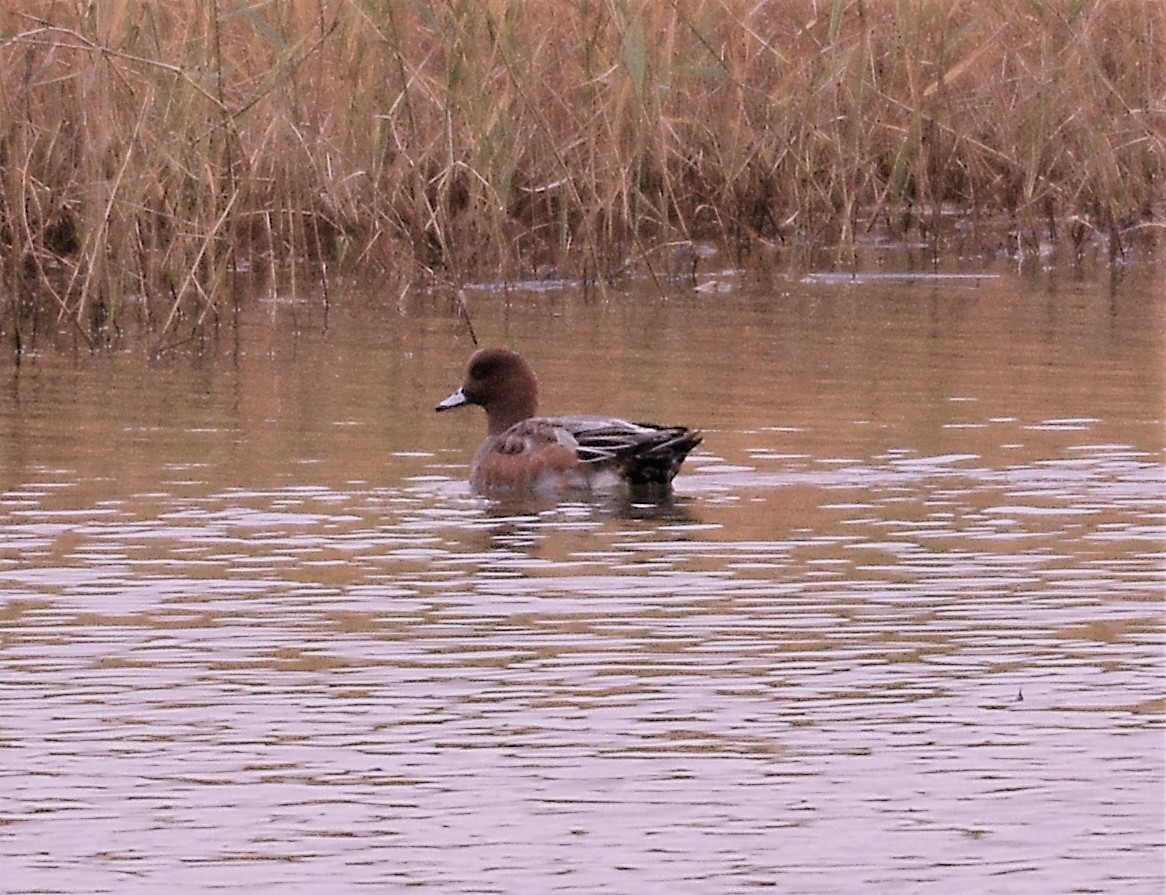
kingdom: Animalia
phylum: Chordata
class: Aves
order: Anseriformes
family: Anatidae
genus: Mareca
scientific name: Mareca penelope
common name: Eurasian wigeon
